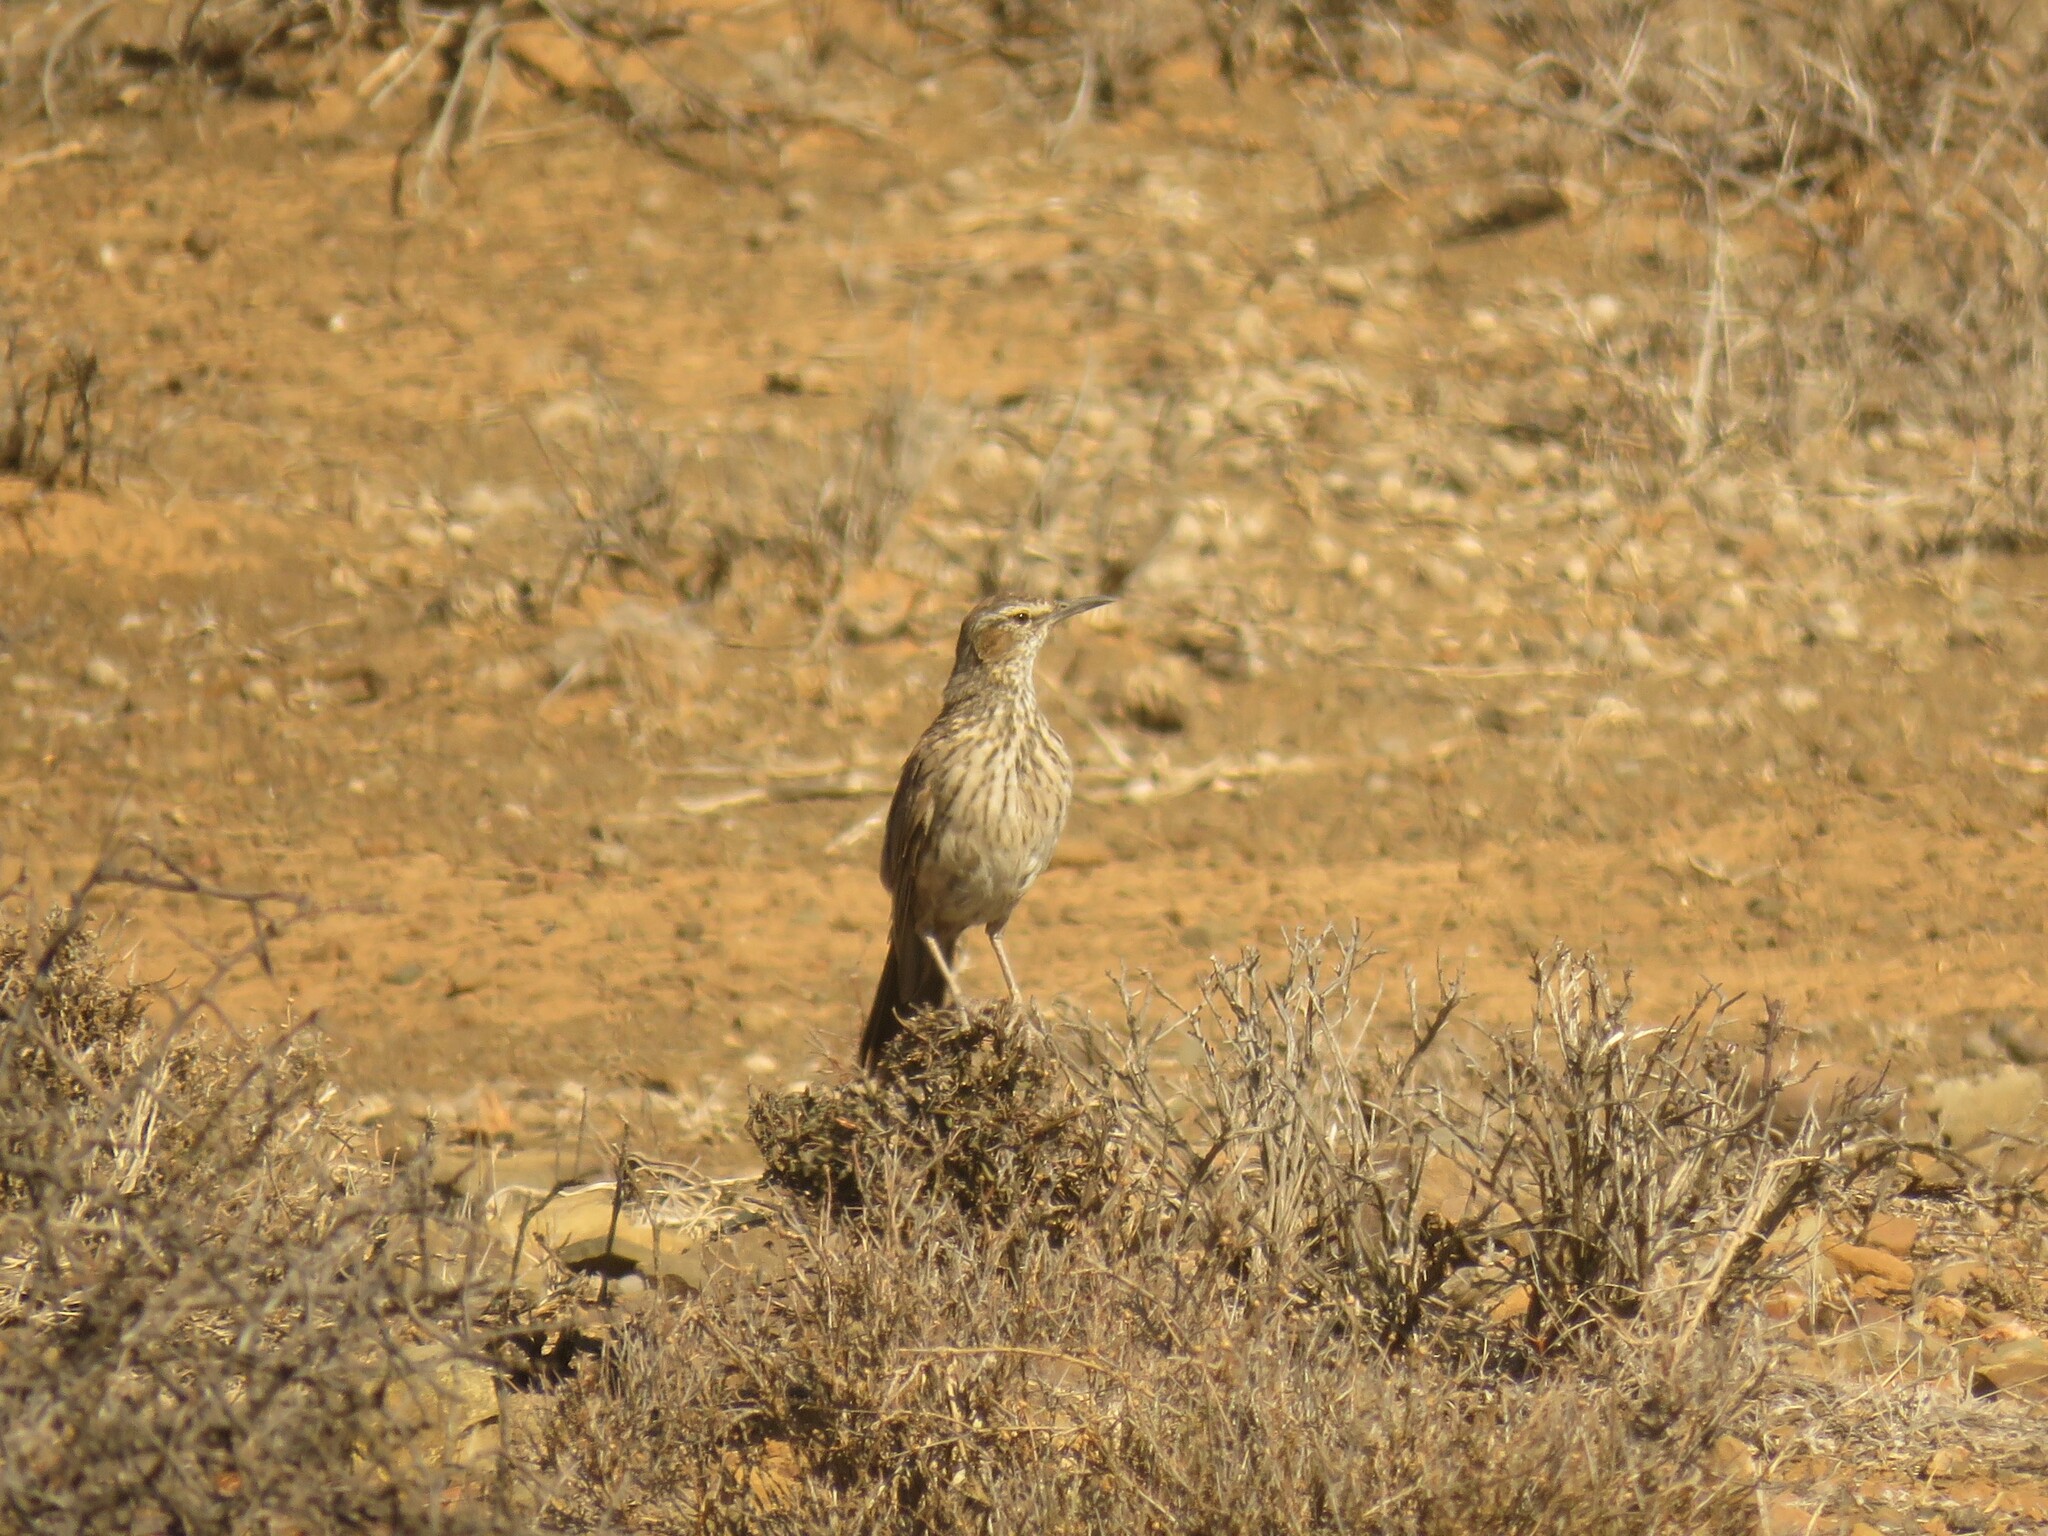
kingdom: Animalia
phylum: Chordata
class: Aves
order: Passeriformes
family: Alaudidae
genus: Certhilauda
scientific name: Certhilauda subcoronata
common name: Karoo long-billed lark
